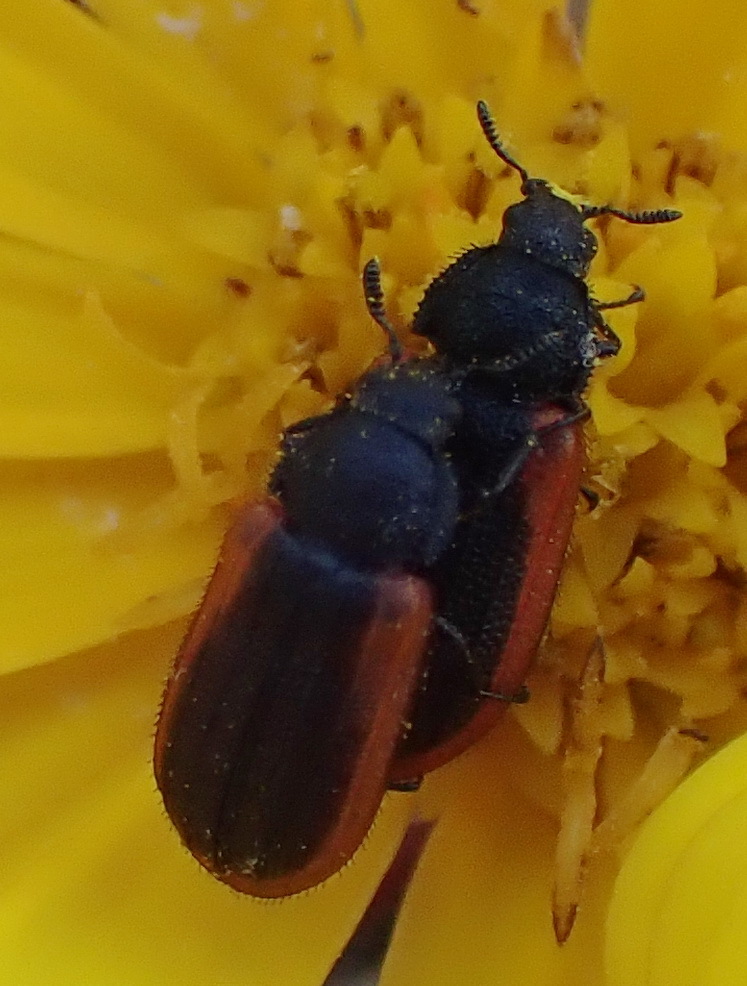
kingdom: Animalia
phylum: Arthropoda
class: Insecta
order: Coleoptera
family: Melyridae
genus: Melyris
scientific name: Melyris
